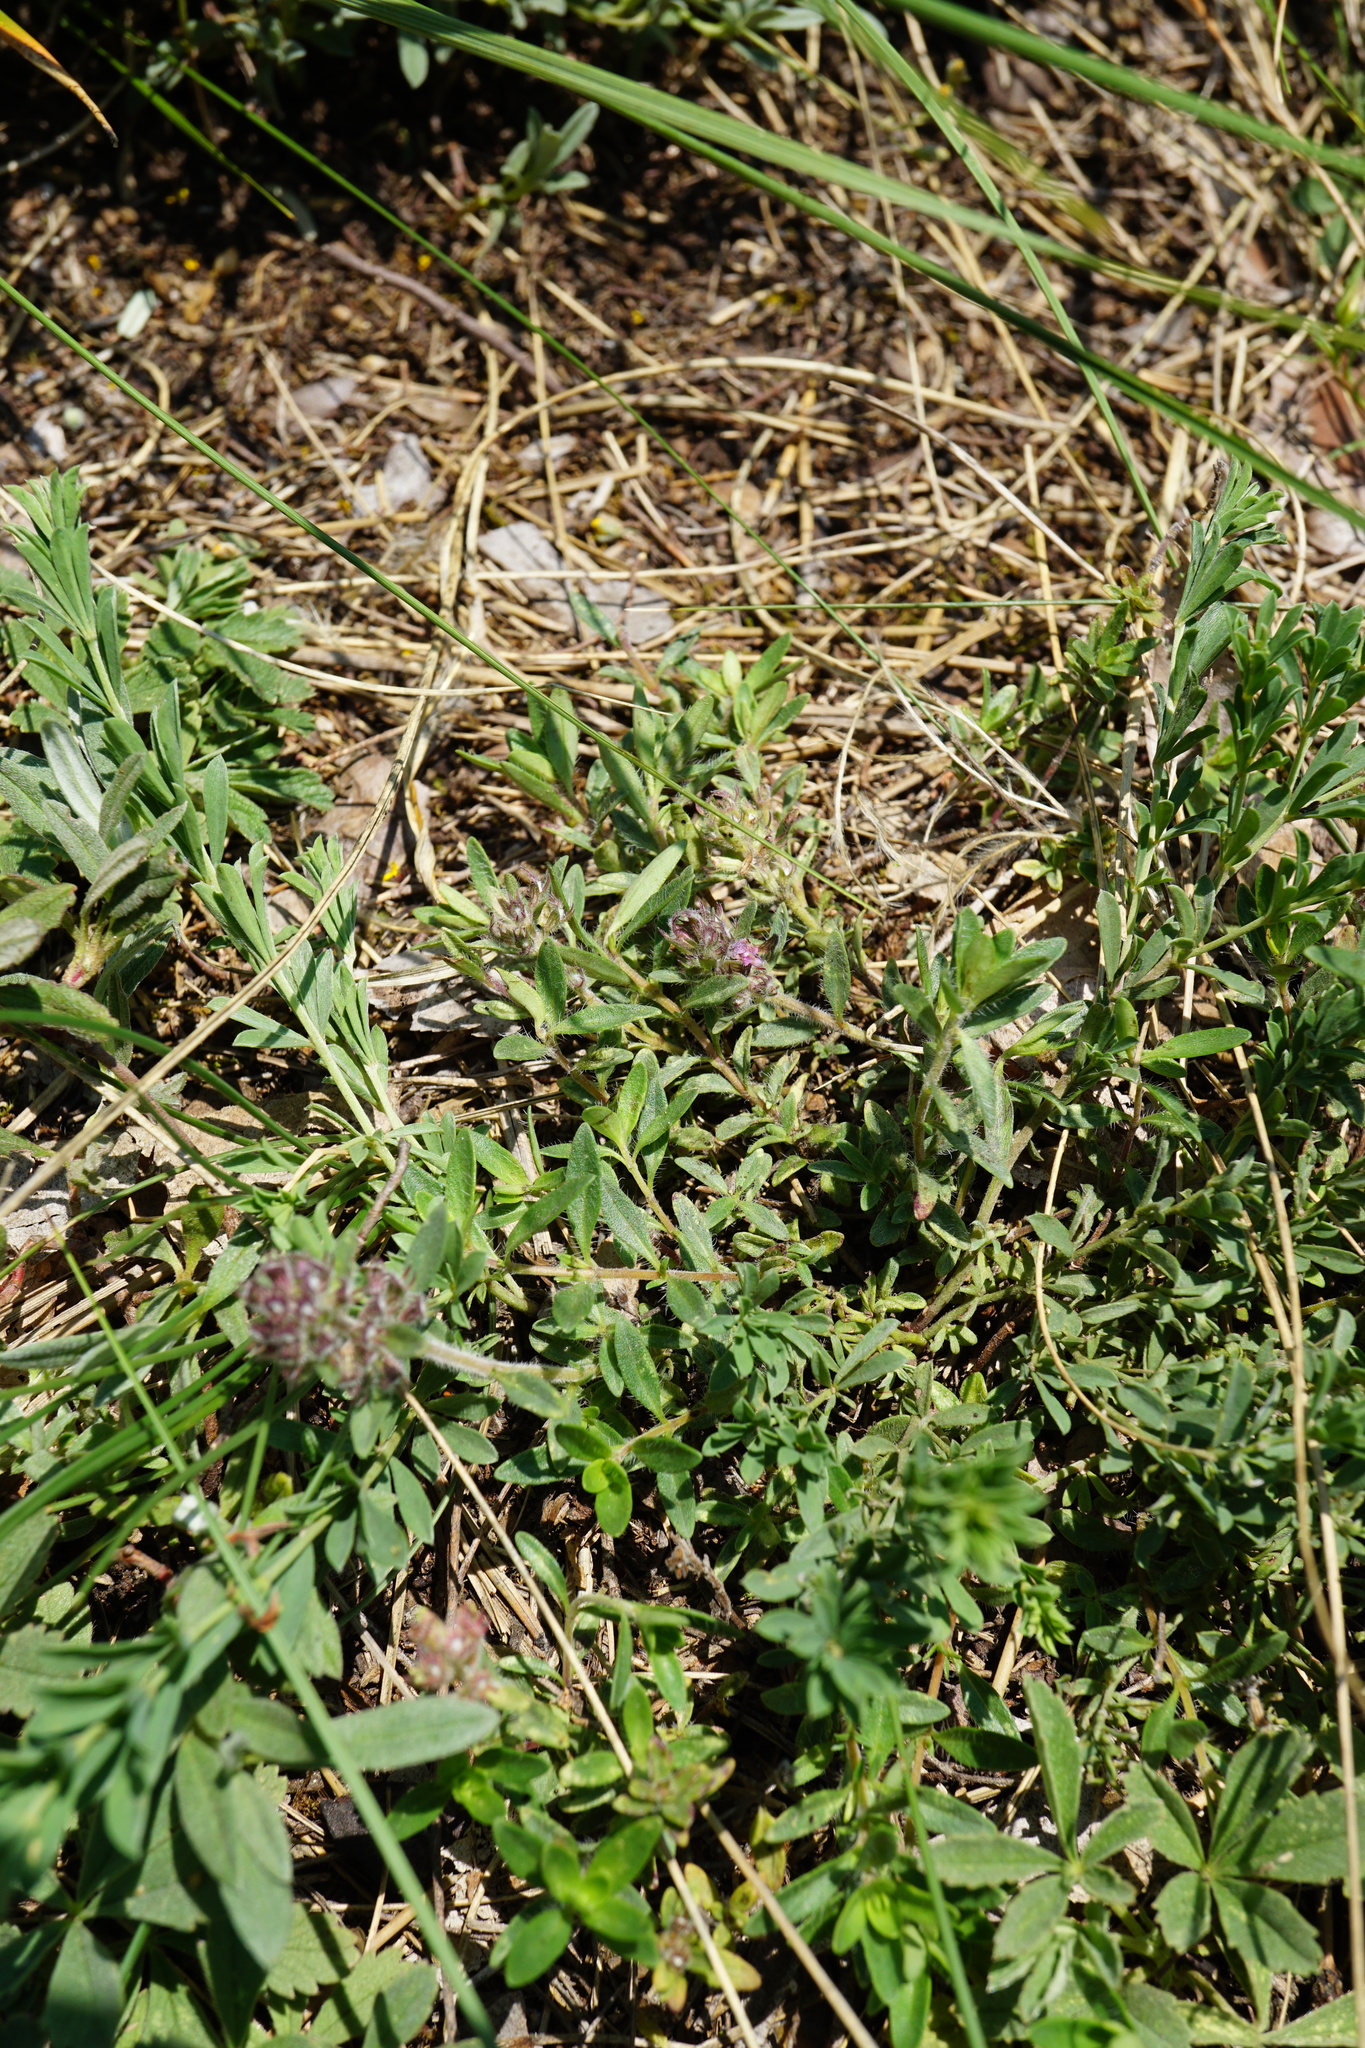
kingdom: Plantae
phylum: Tracheophyta
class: Magnoliopsida
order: Lamiales
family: Lamiaceae
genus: Thymus
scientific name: Thymus odoratissimus
